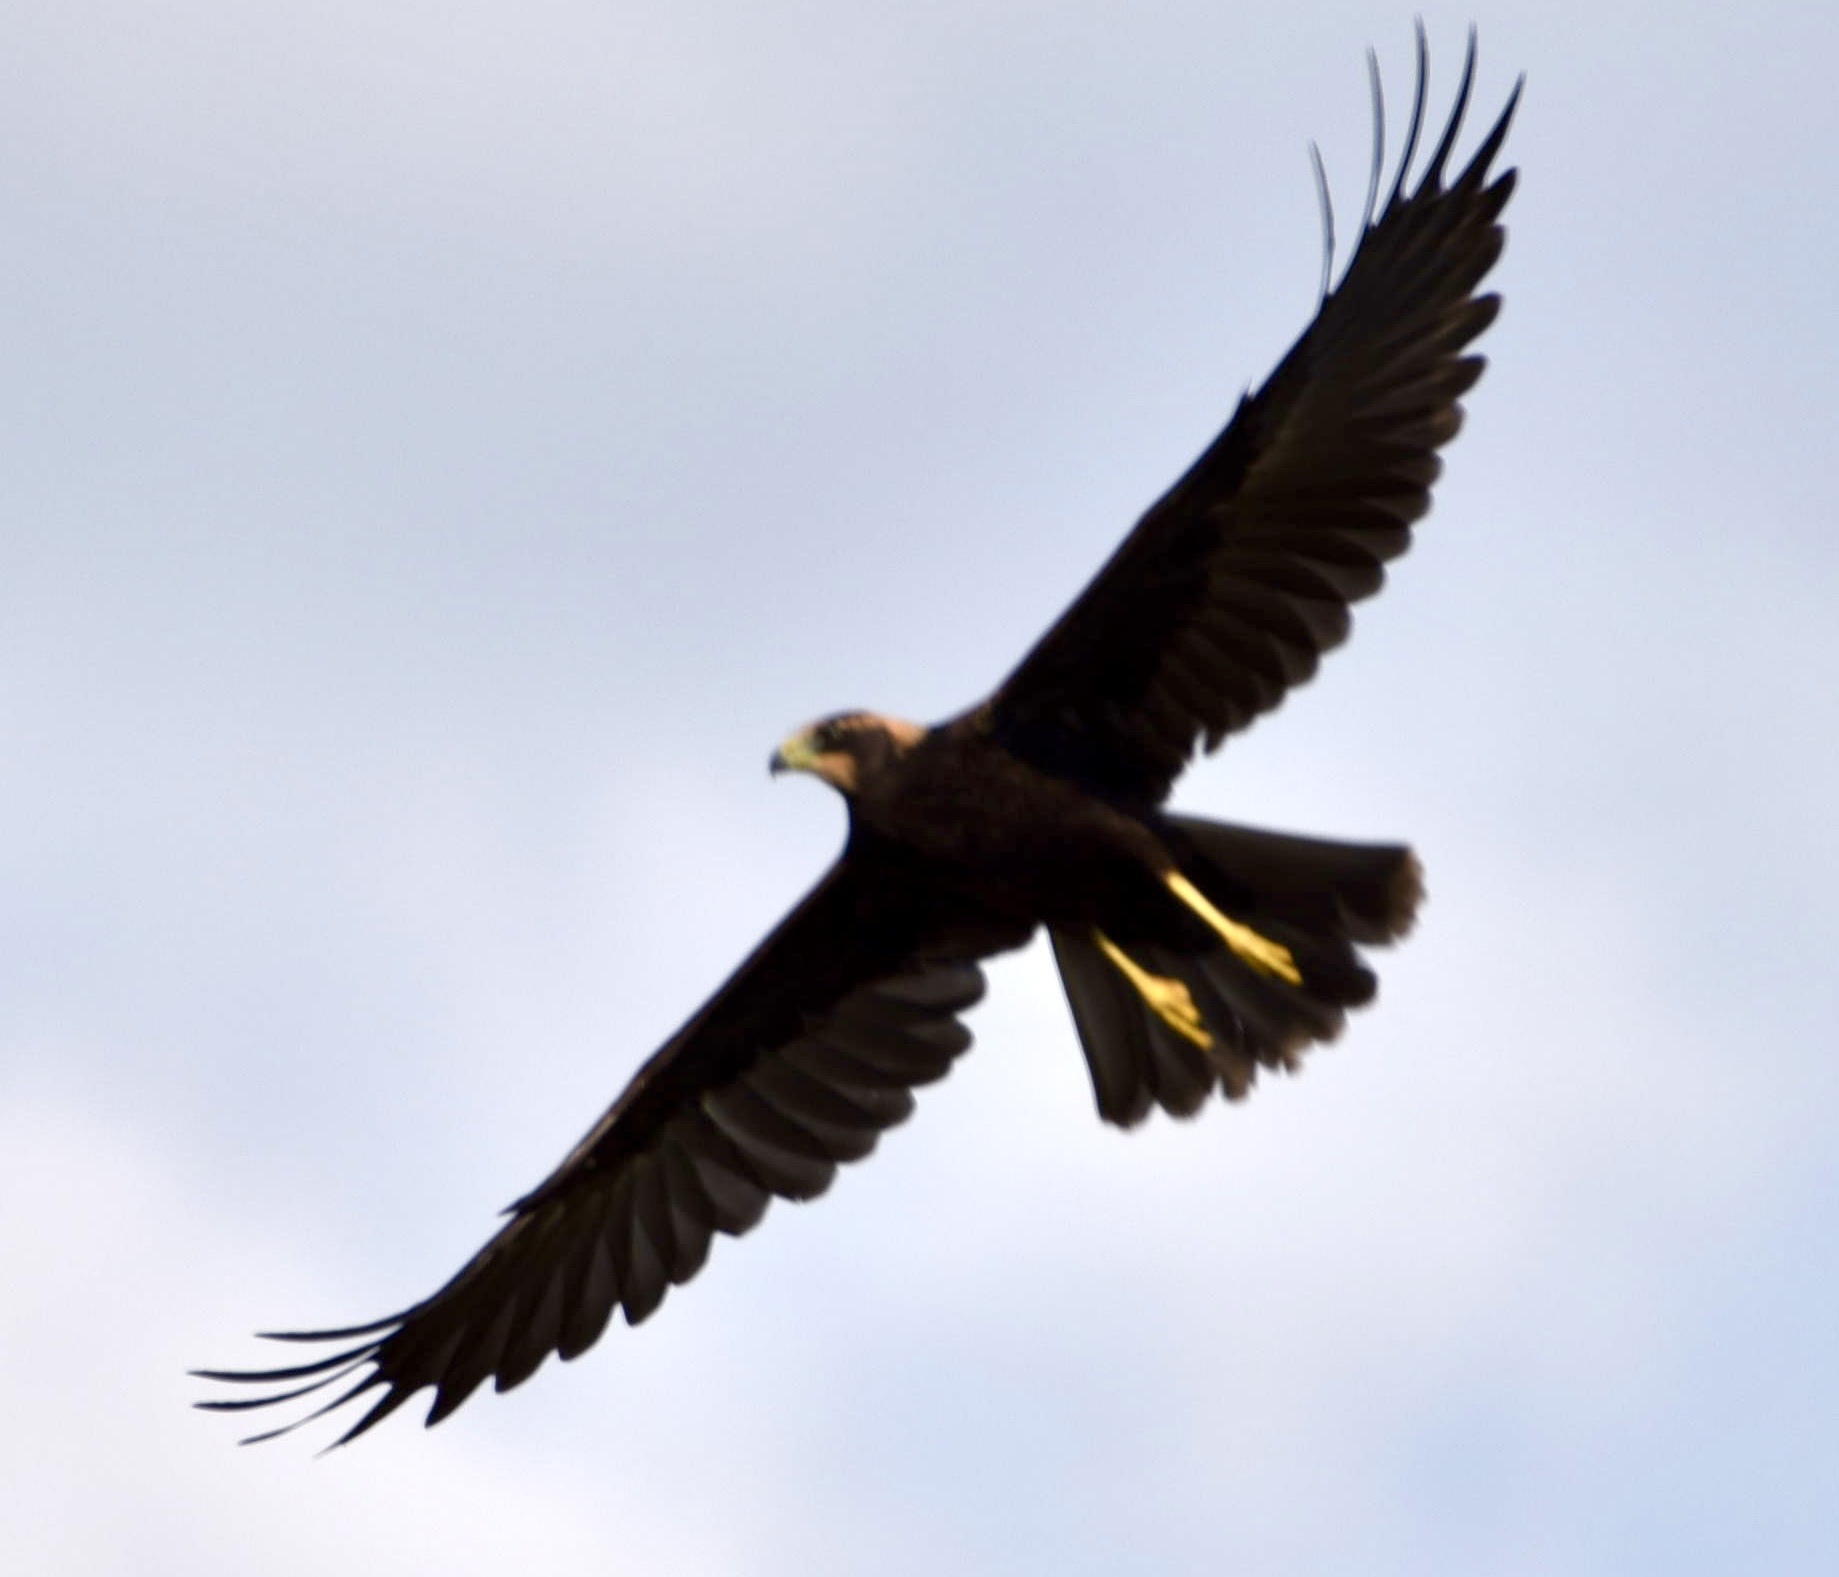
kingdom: Animalia
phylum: Chordata
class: Aves
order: Accipitriformes
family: Accipitridae
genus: Circus
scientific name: Circus aeruginosus
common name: Western marsh harrier
